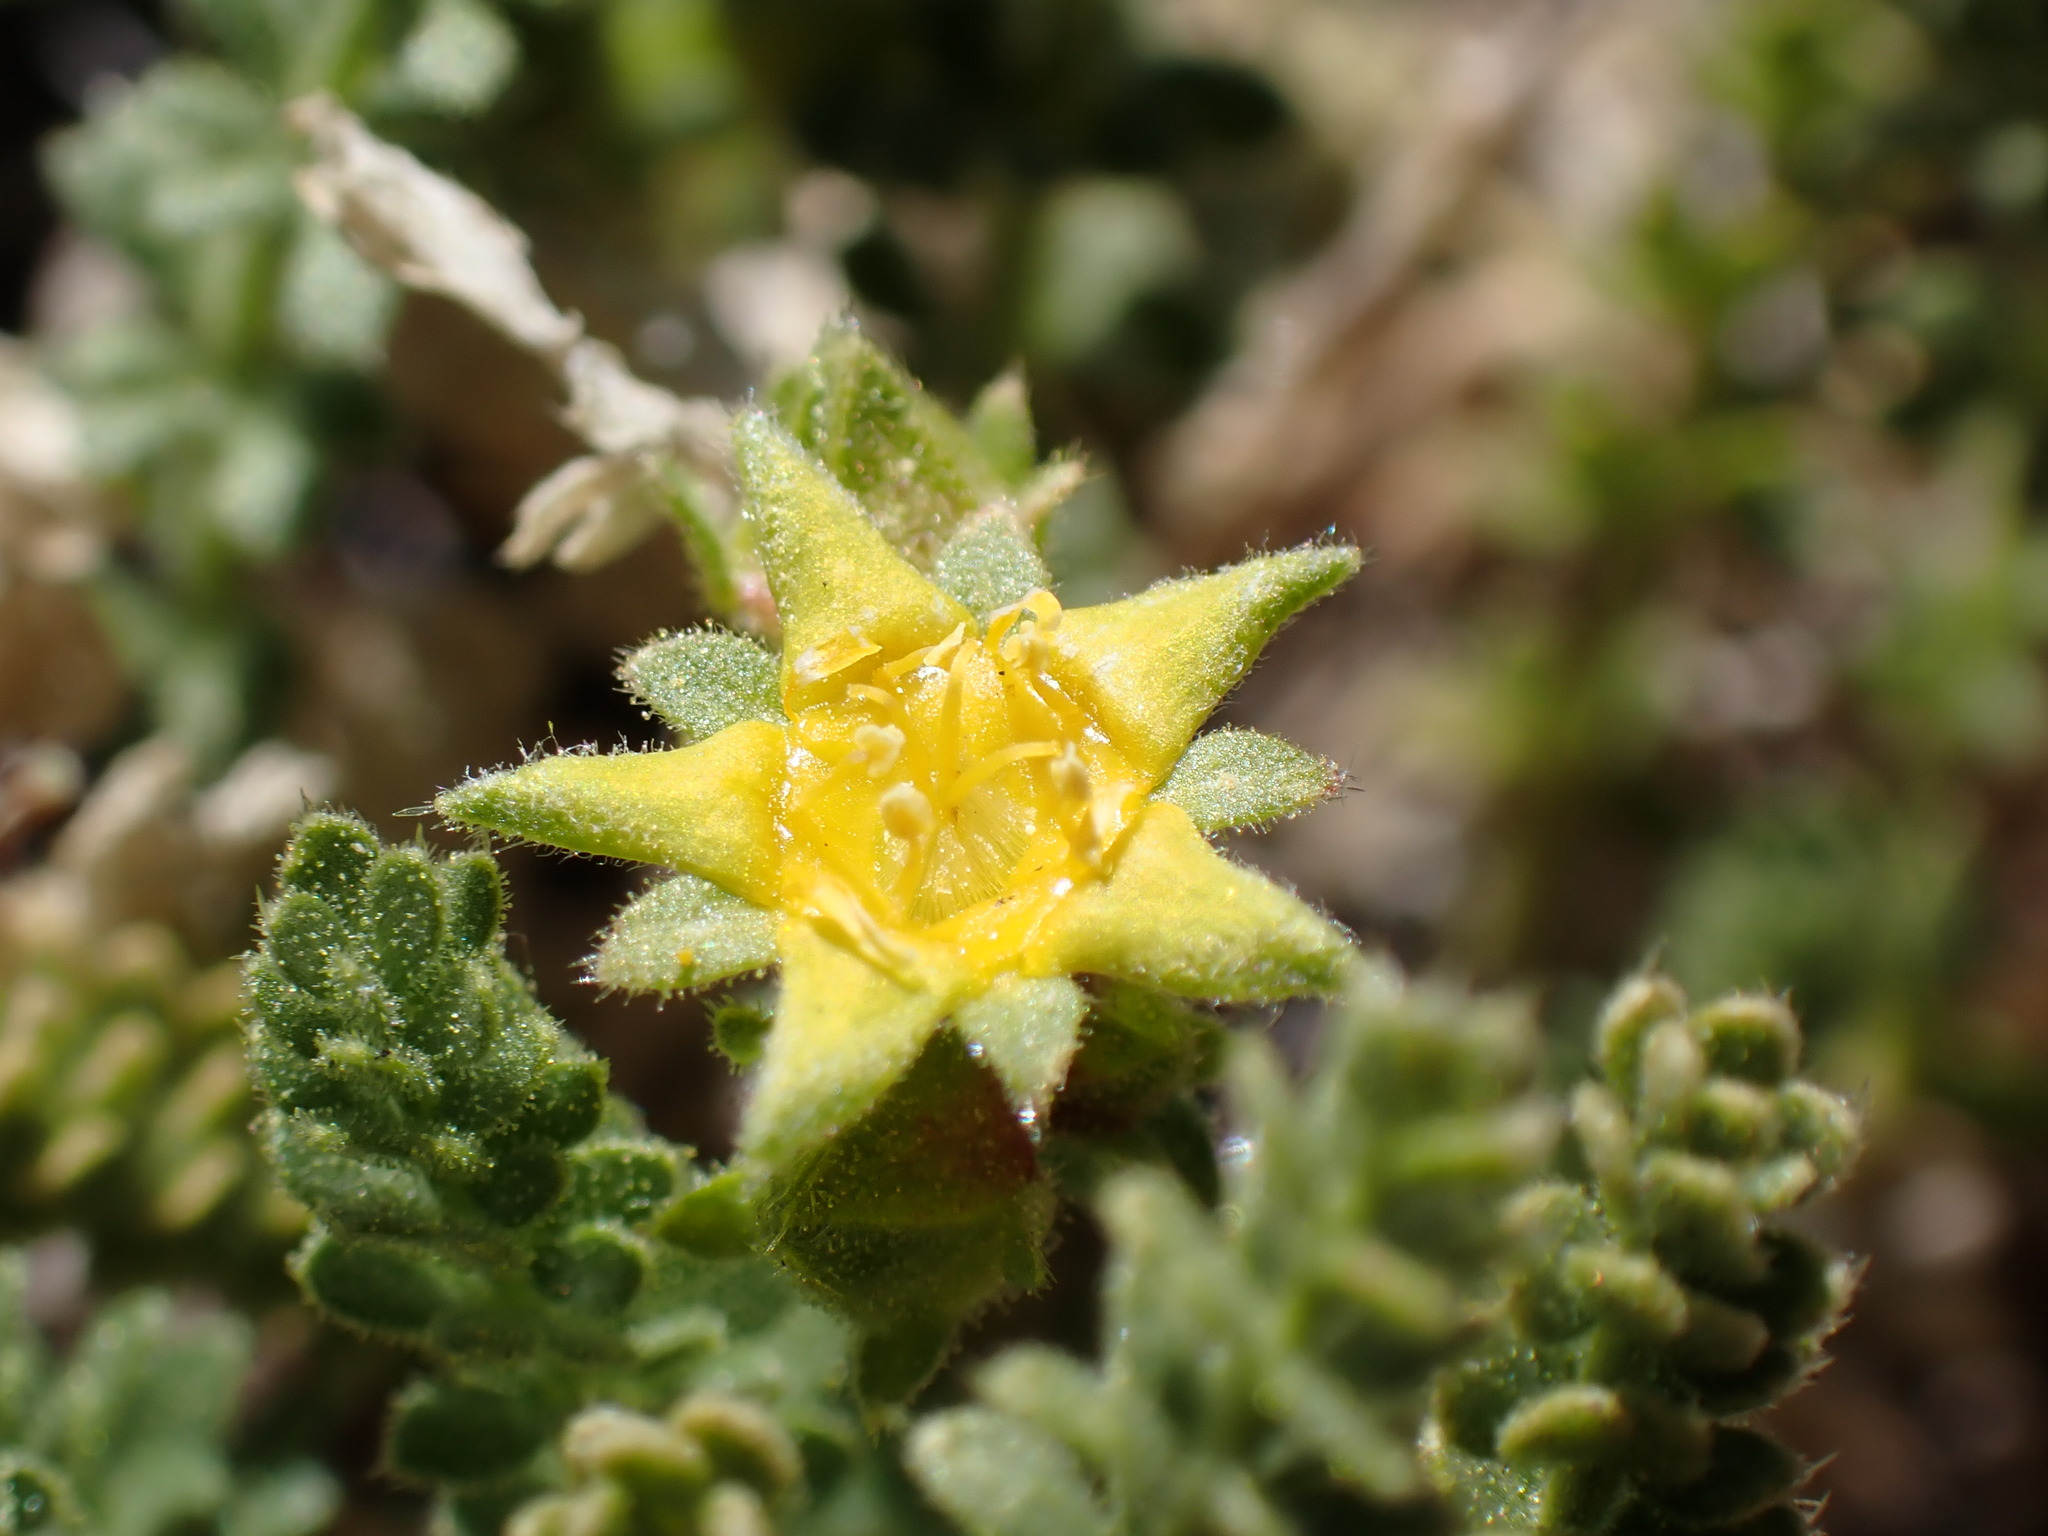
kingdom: Plantae
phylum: Tracheophyta
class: Magnoliopsida
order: Rosales
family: Rosaceae
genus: Potentilla
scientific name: Potentilla shockleyi
